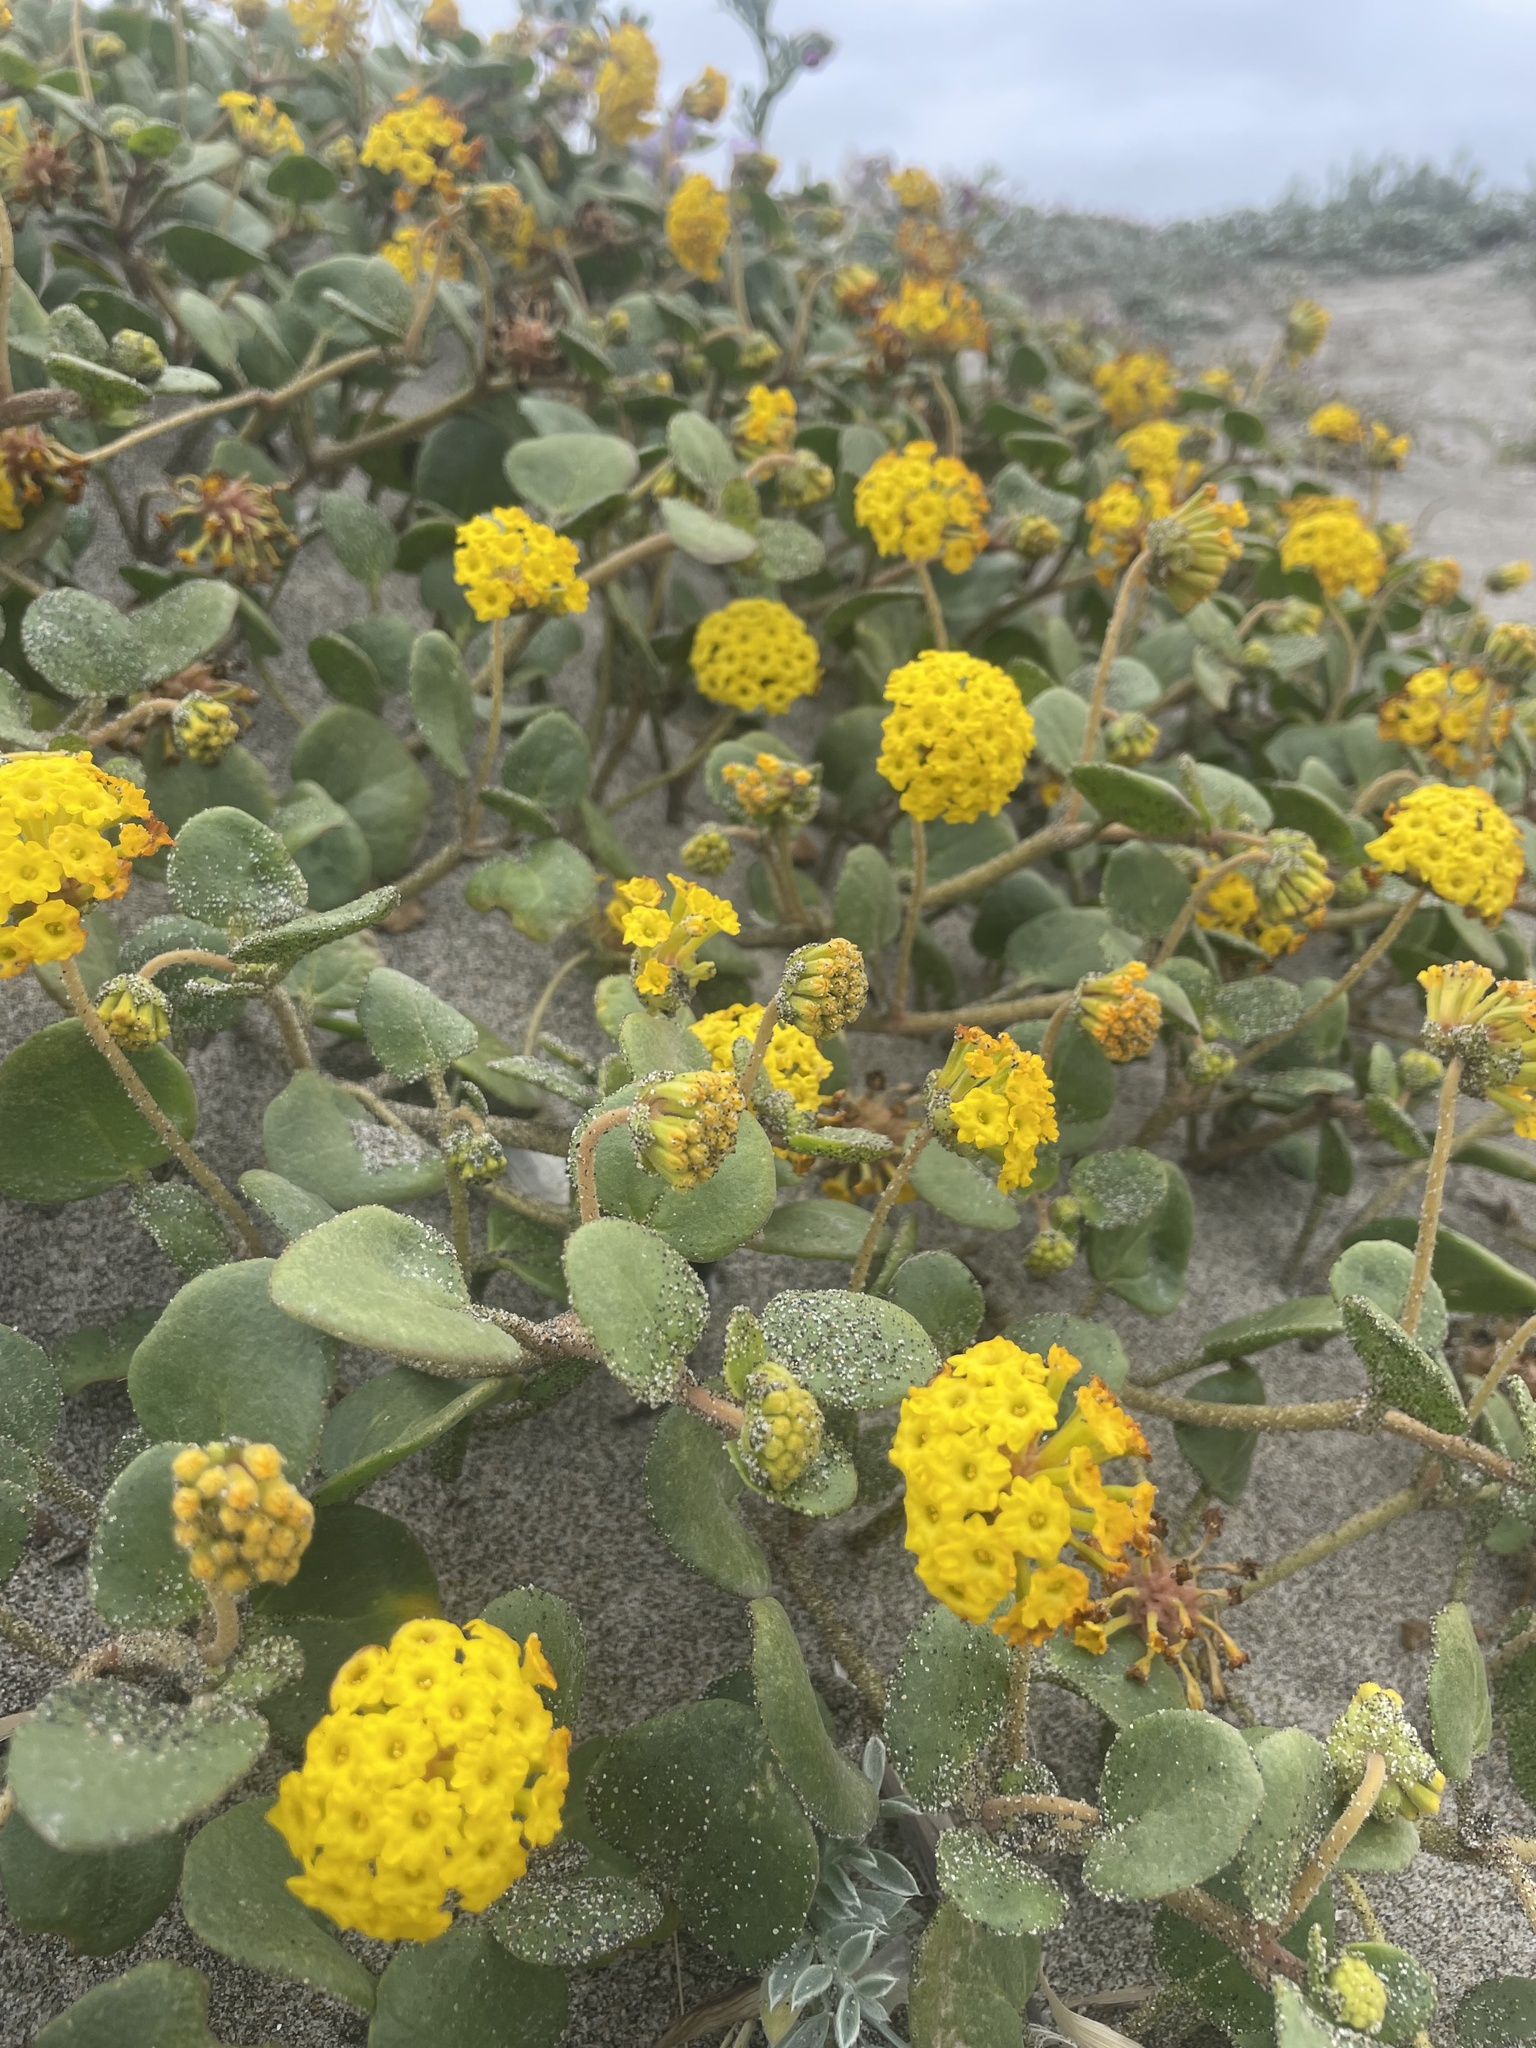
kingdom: Plantae
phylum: Tracheophyta
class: Magnoliopsida
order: Caryophyllales
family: Nyctaginaceae
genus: Abronia
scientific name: Abronia latifolia
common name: Yellow sand-verbena
